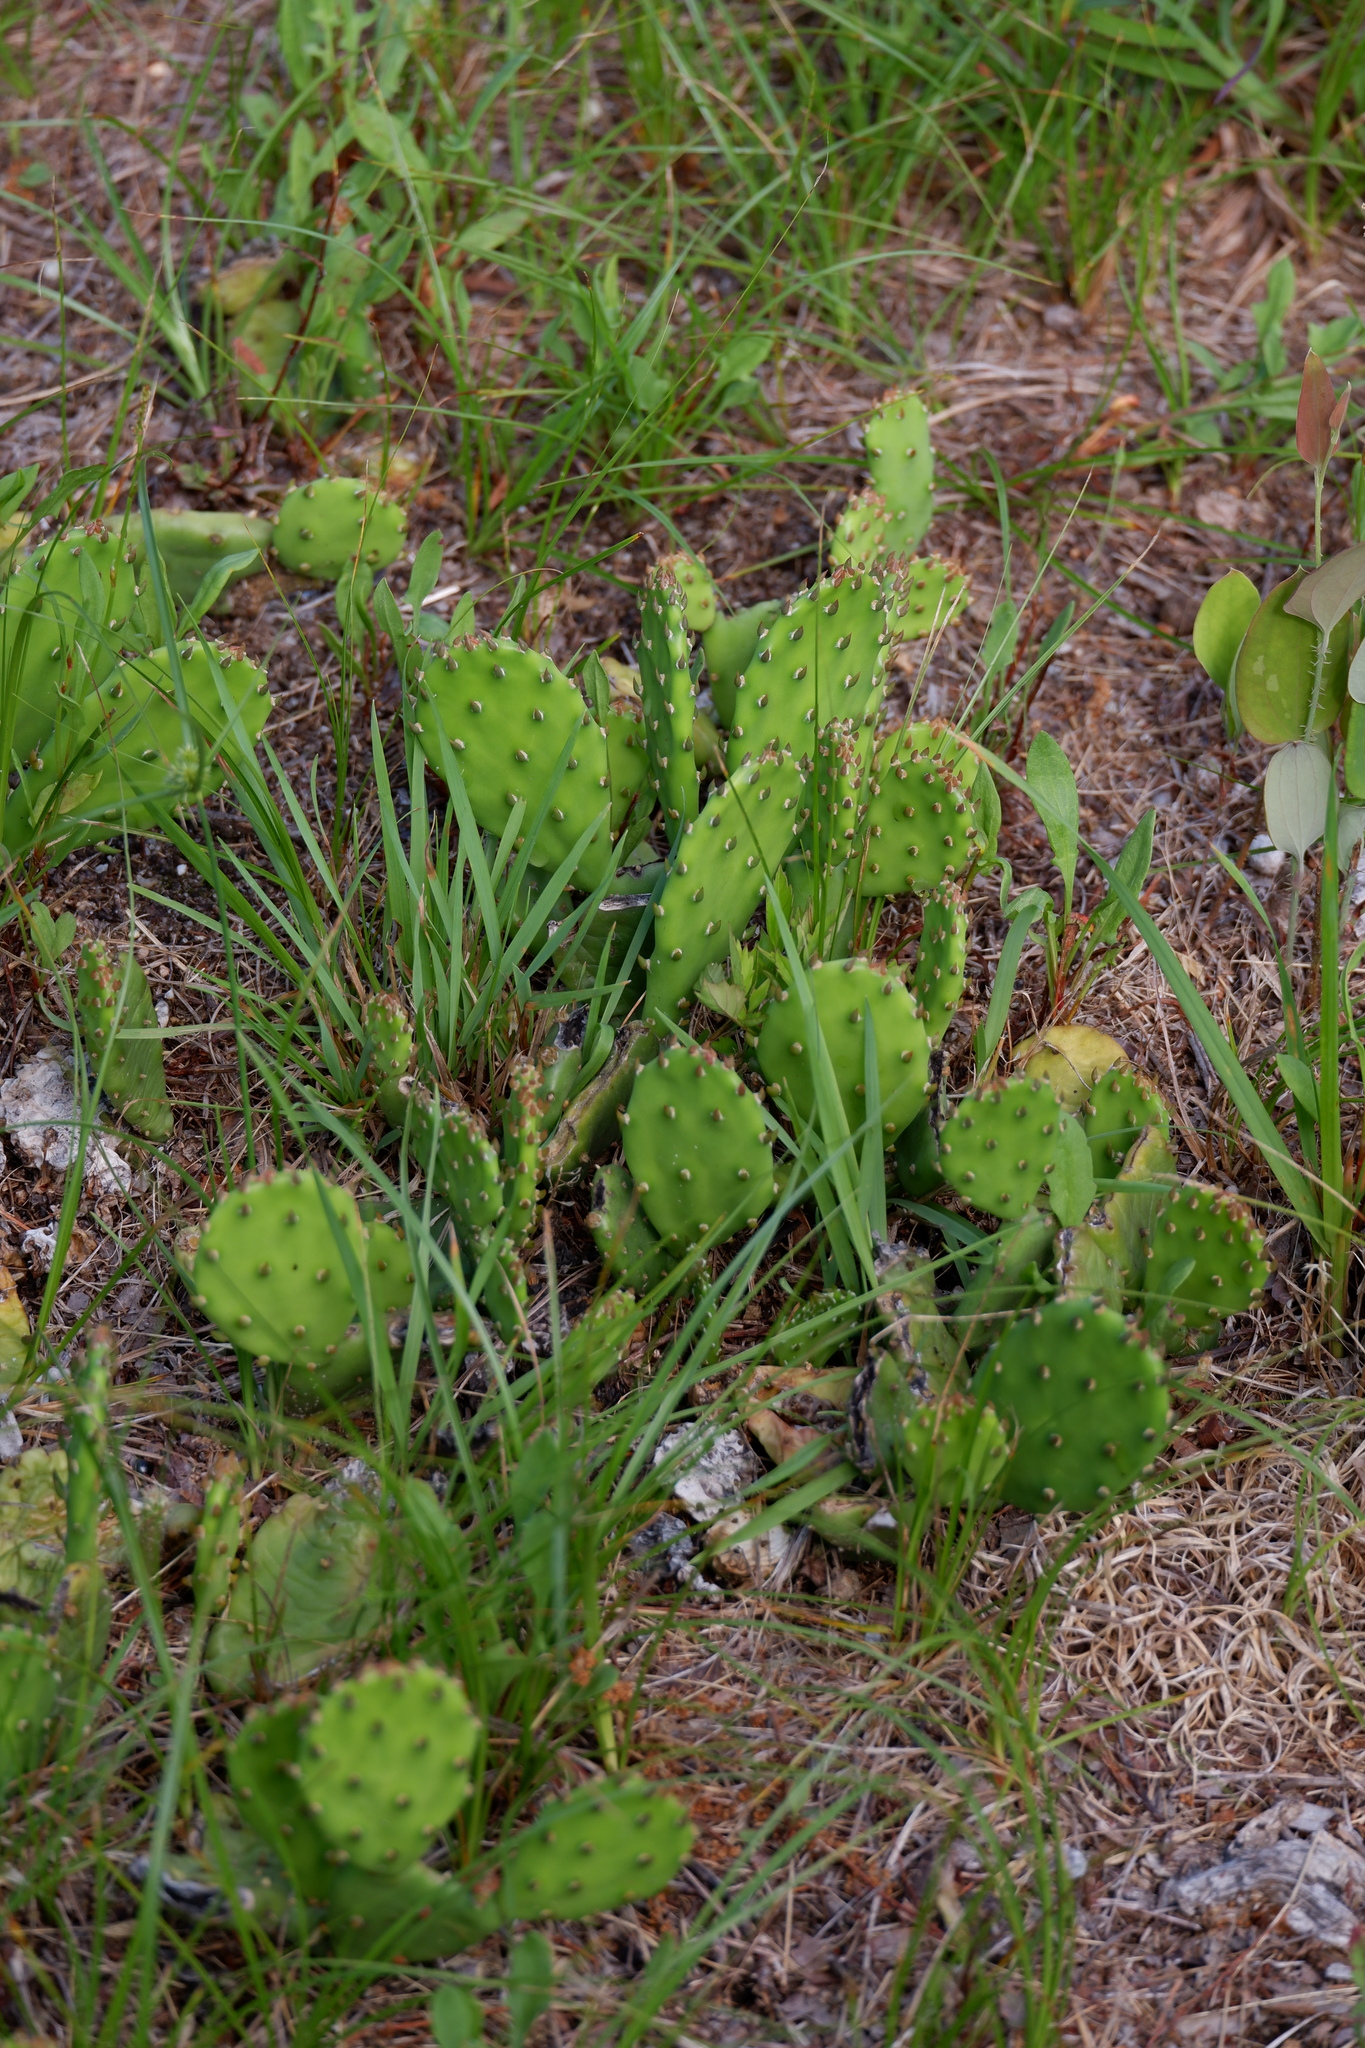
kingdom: Plantae
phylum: Tracheophyta
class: Magnoliopsida
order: Caryophyllales
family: Cactaceae
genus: Opuntia
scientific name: Opuntia humifusa
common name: Eastern prickly-pear
